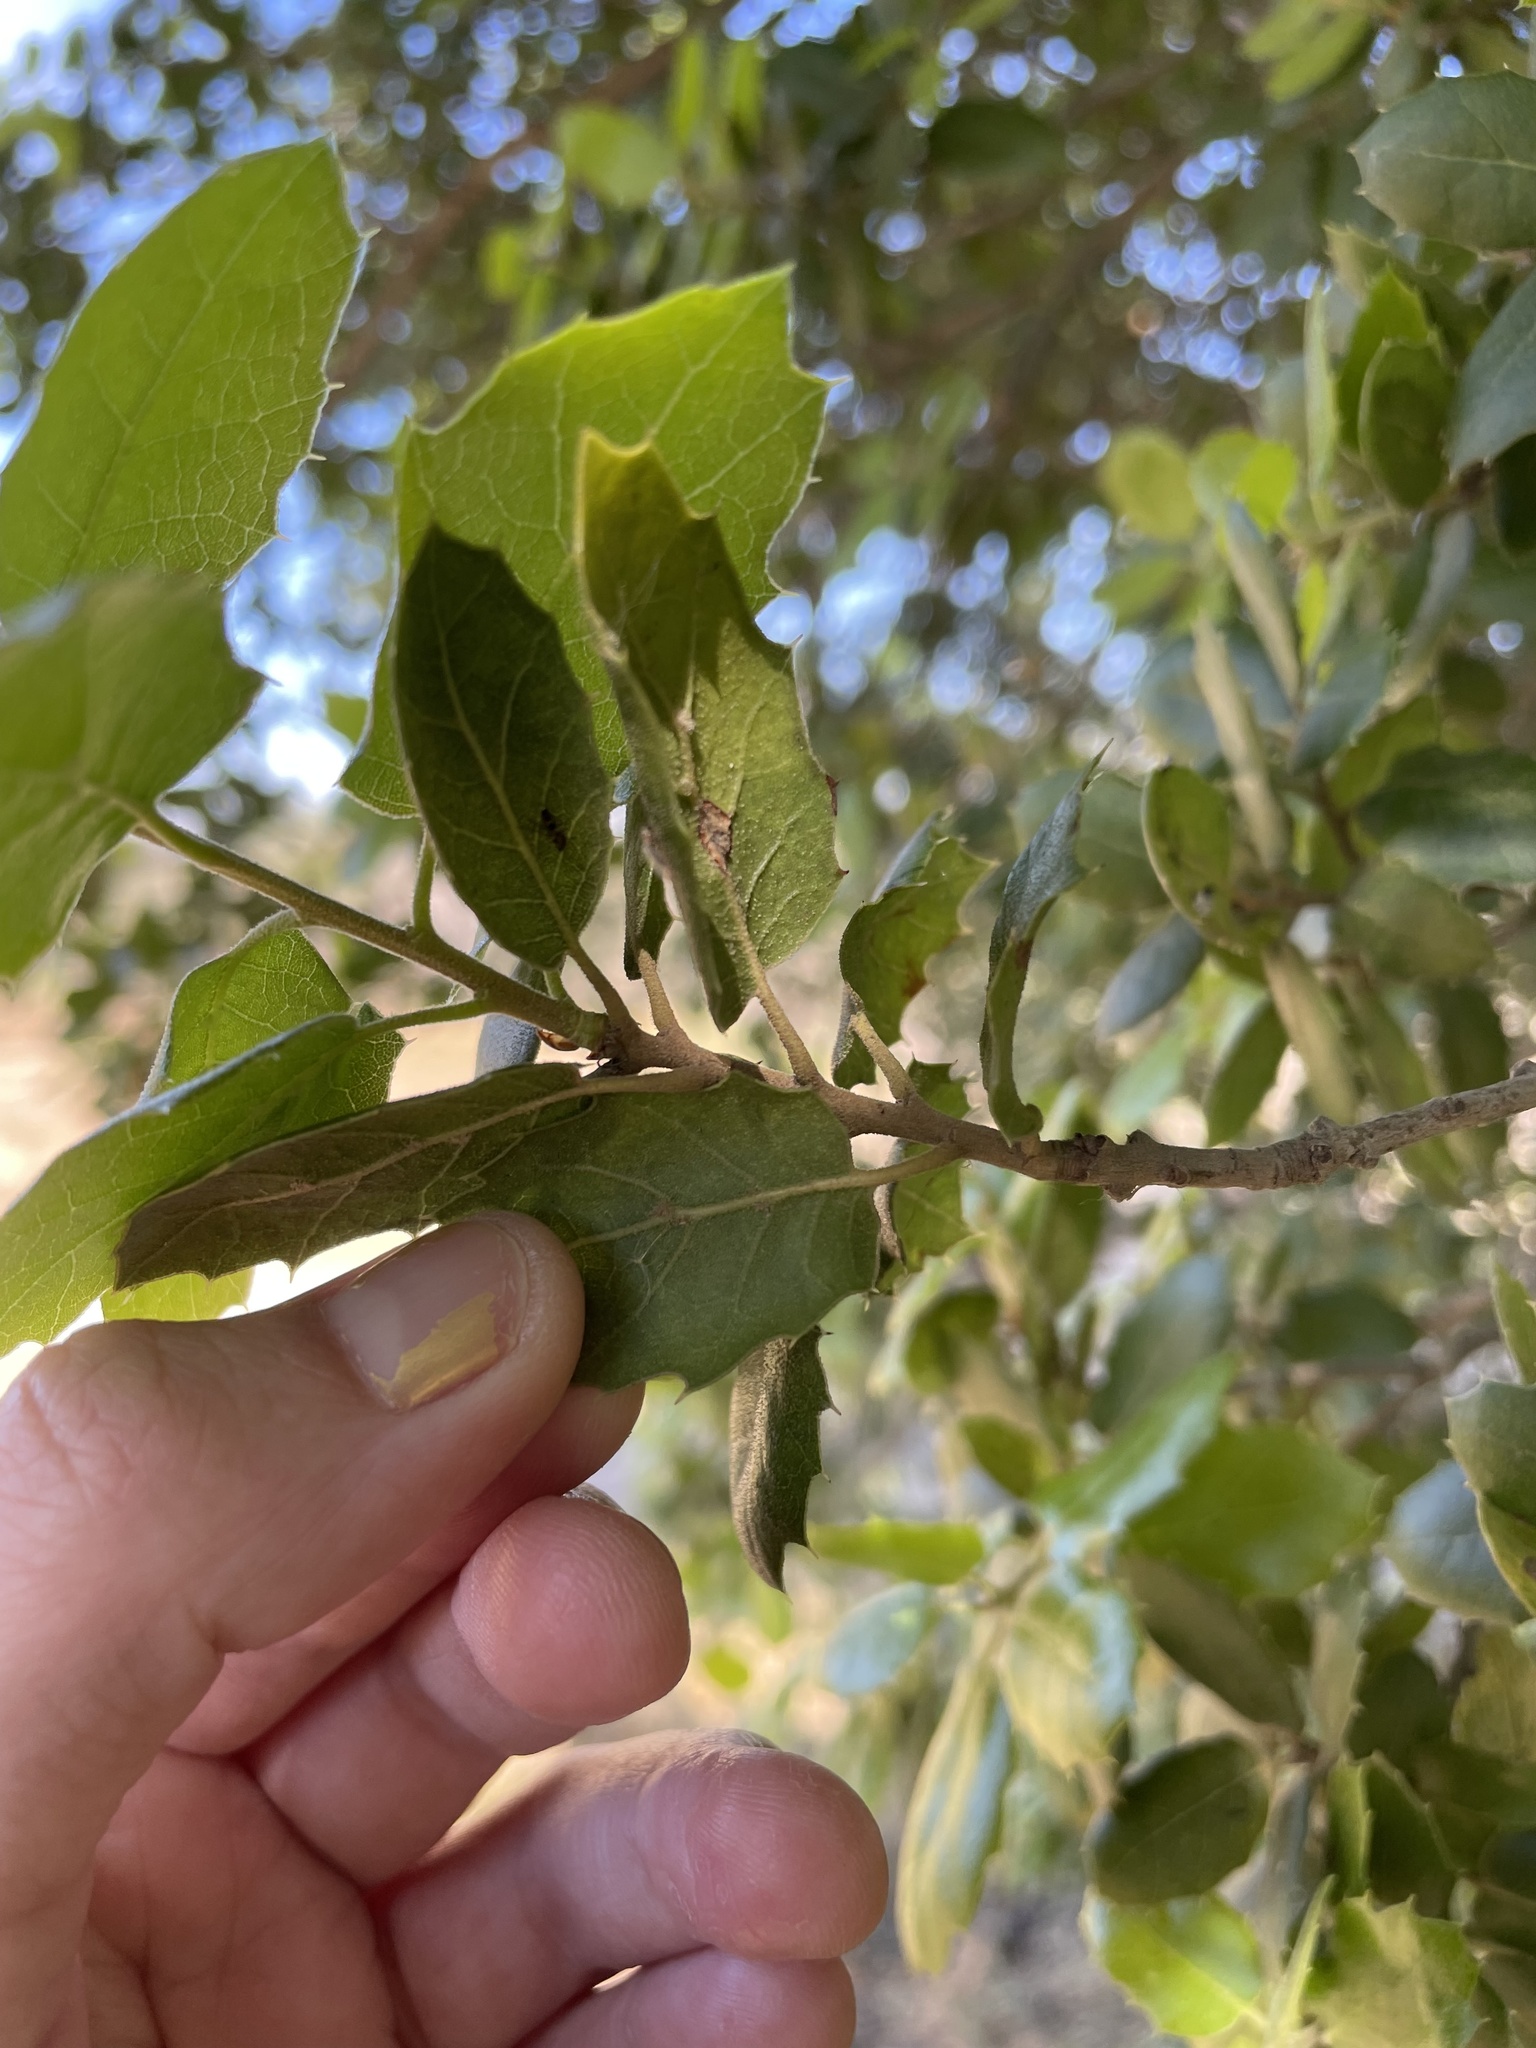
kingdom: Plantae
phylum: Tracheophyta
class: Magnoliopsida
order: Fagales
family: Fagaceae
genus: Quercus
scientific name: Quercus agrifolia
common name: California live oak
